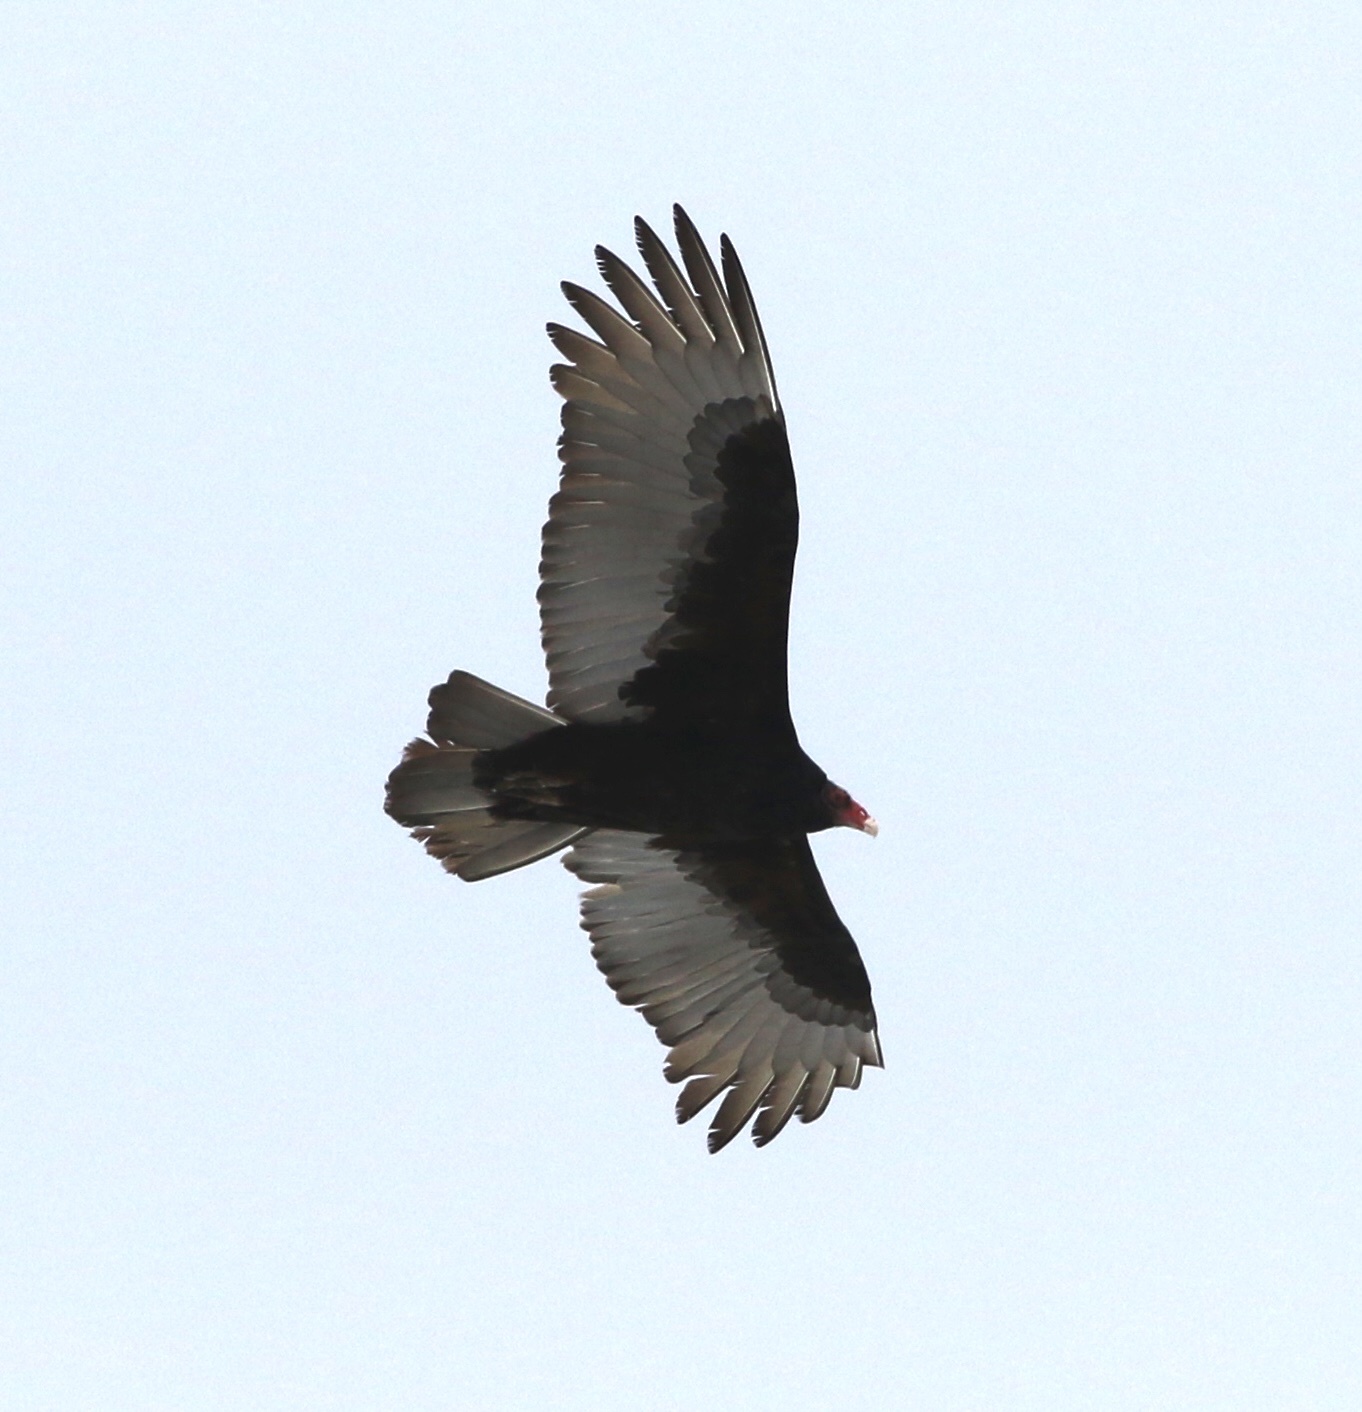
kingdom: Animalia
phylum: Chordata
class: Aves
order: Accipitriformes
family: Cathartidae
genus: Cathartes
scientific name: Cathartes aura
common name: Turkey vulture
